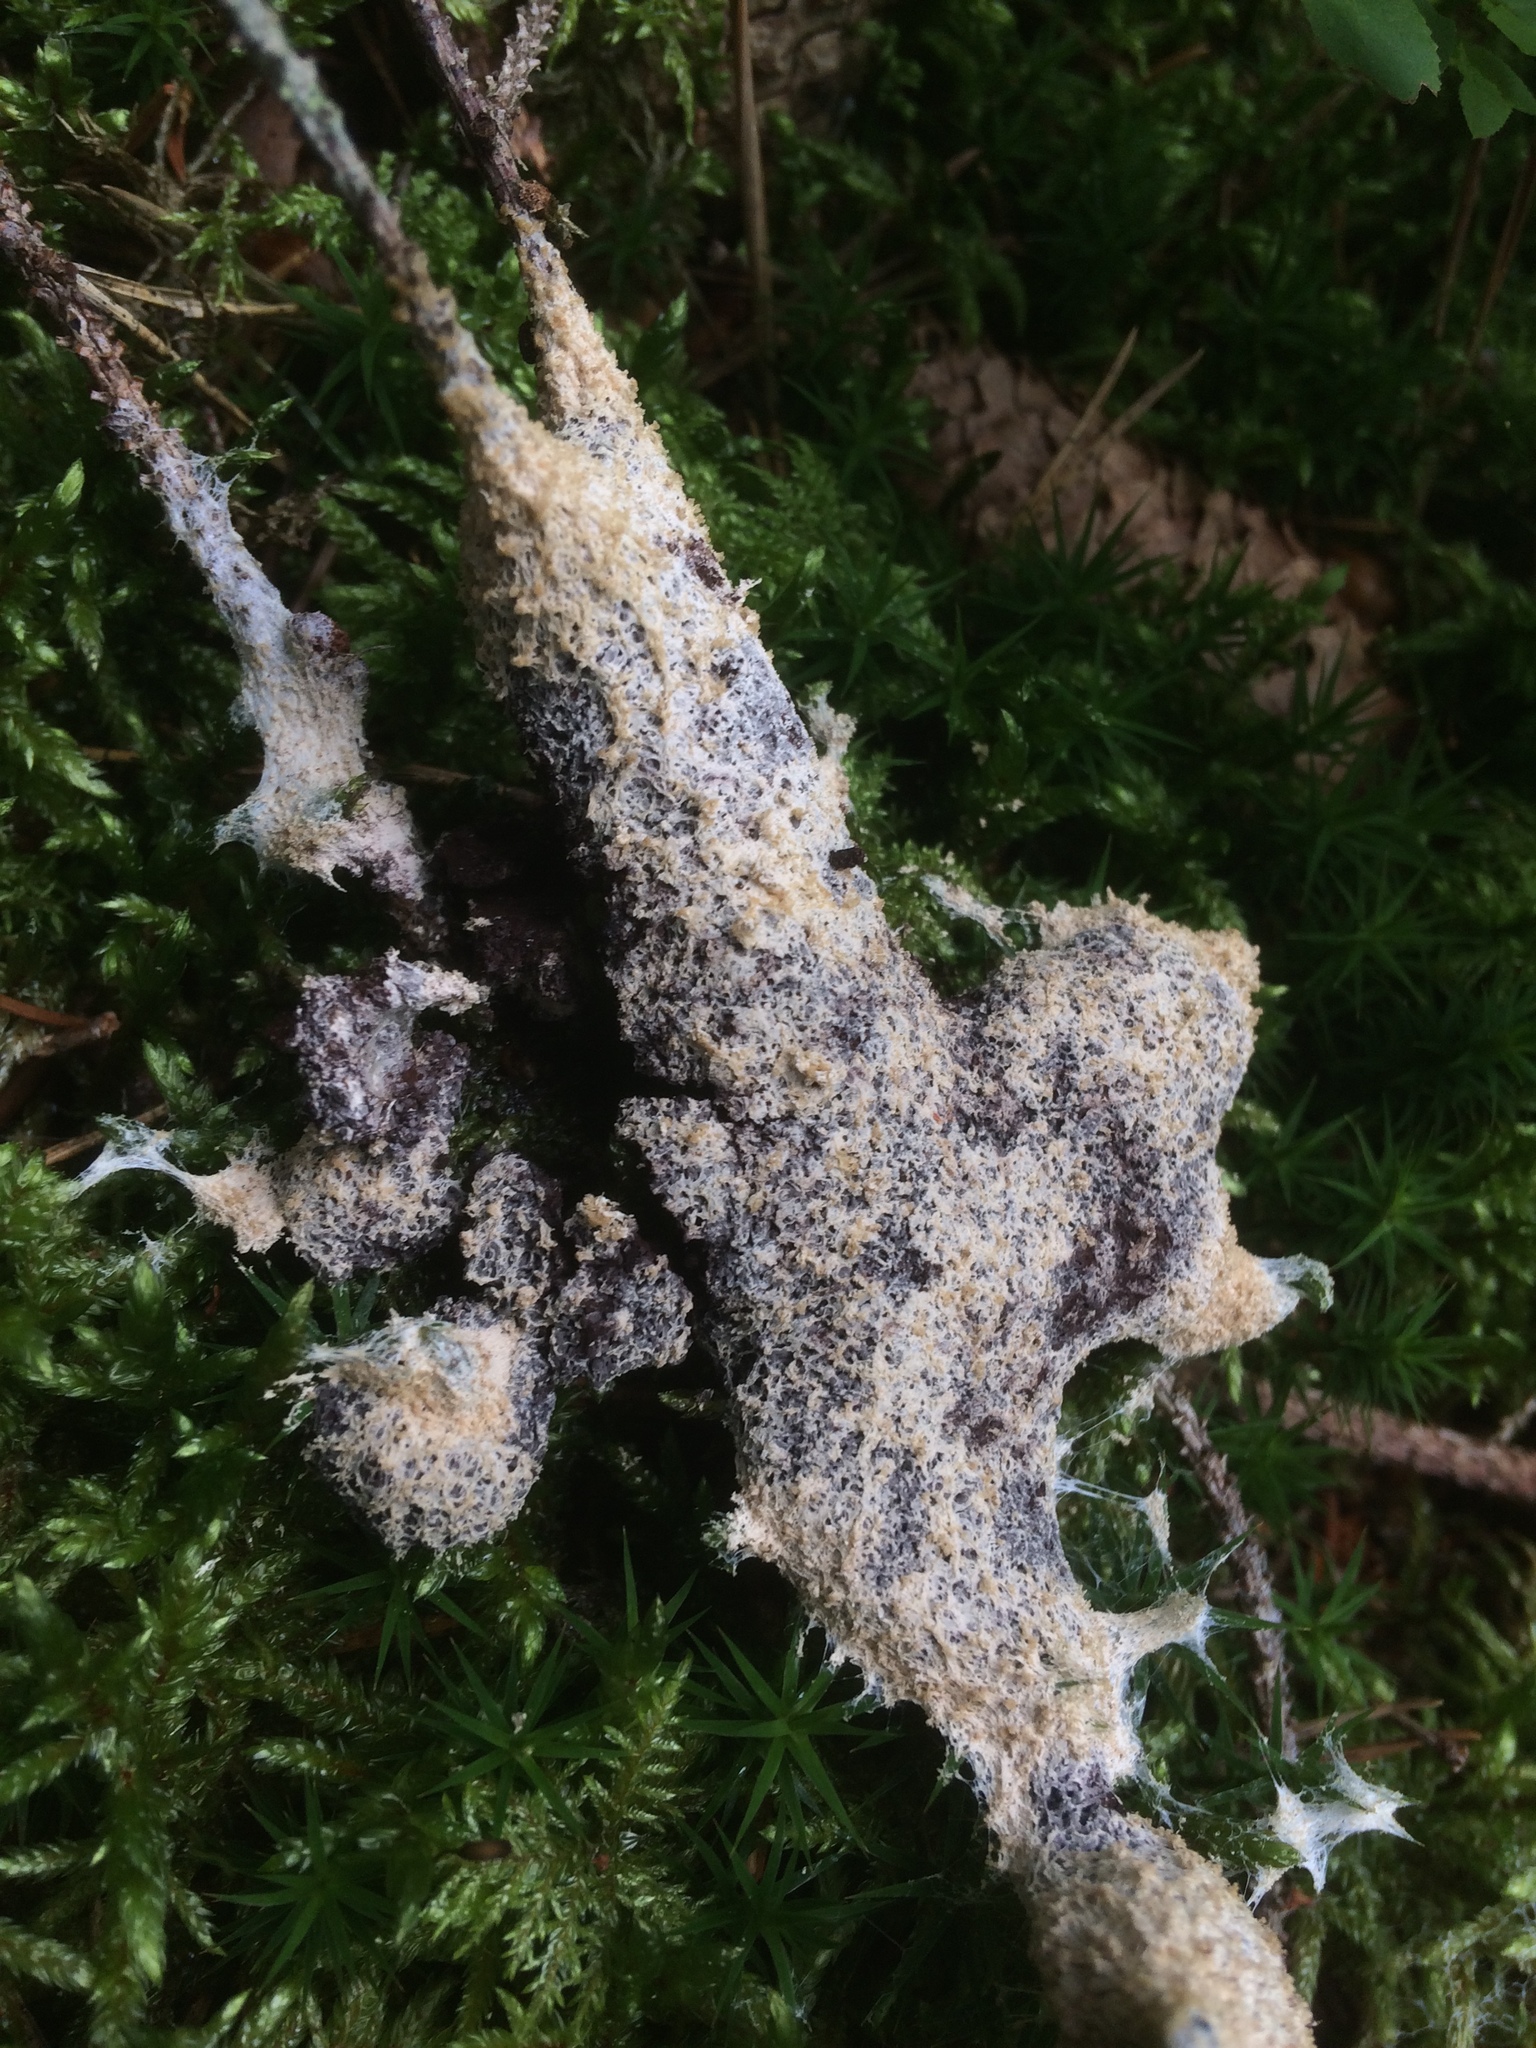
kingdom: Protozoa
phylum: Mycetozoa
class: Myxomycetes
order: Physarales
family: Physaraceae
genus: Didymium
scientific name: Didymium
